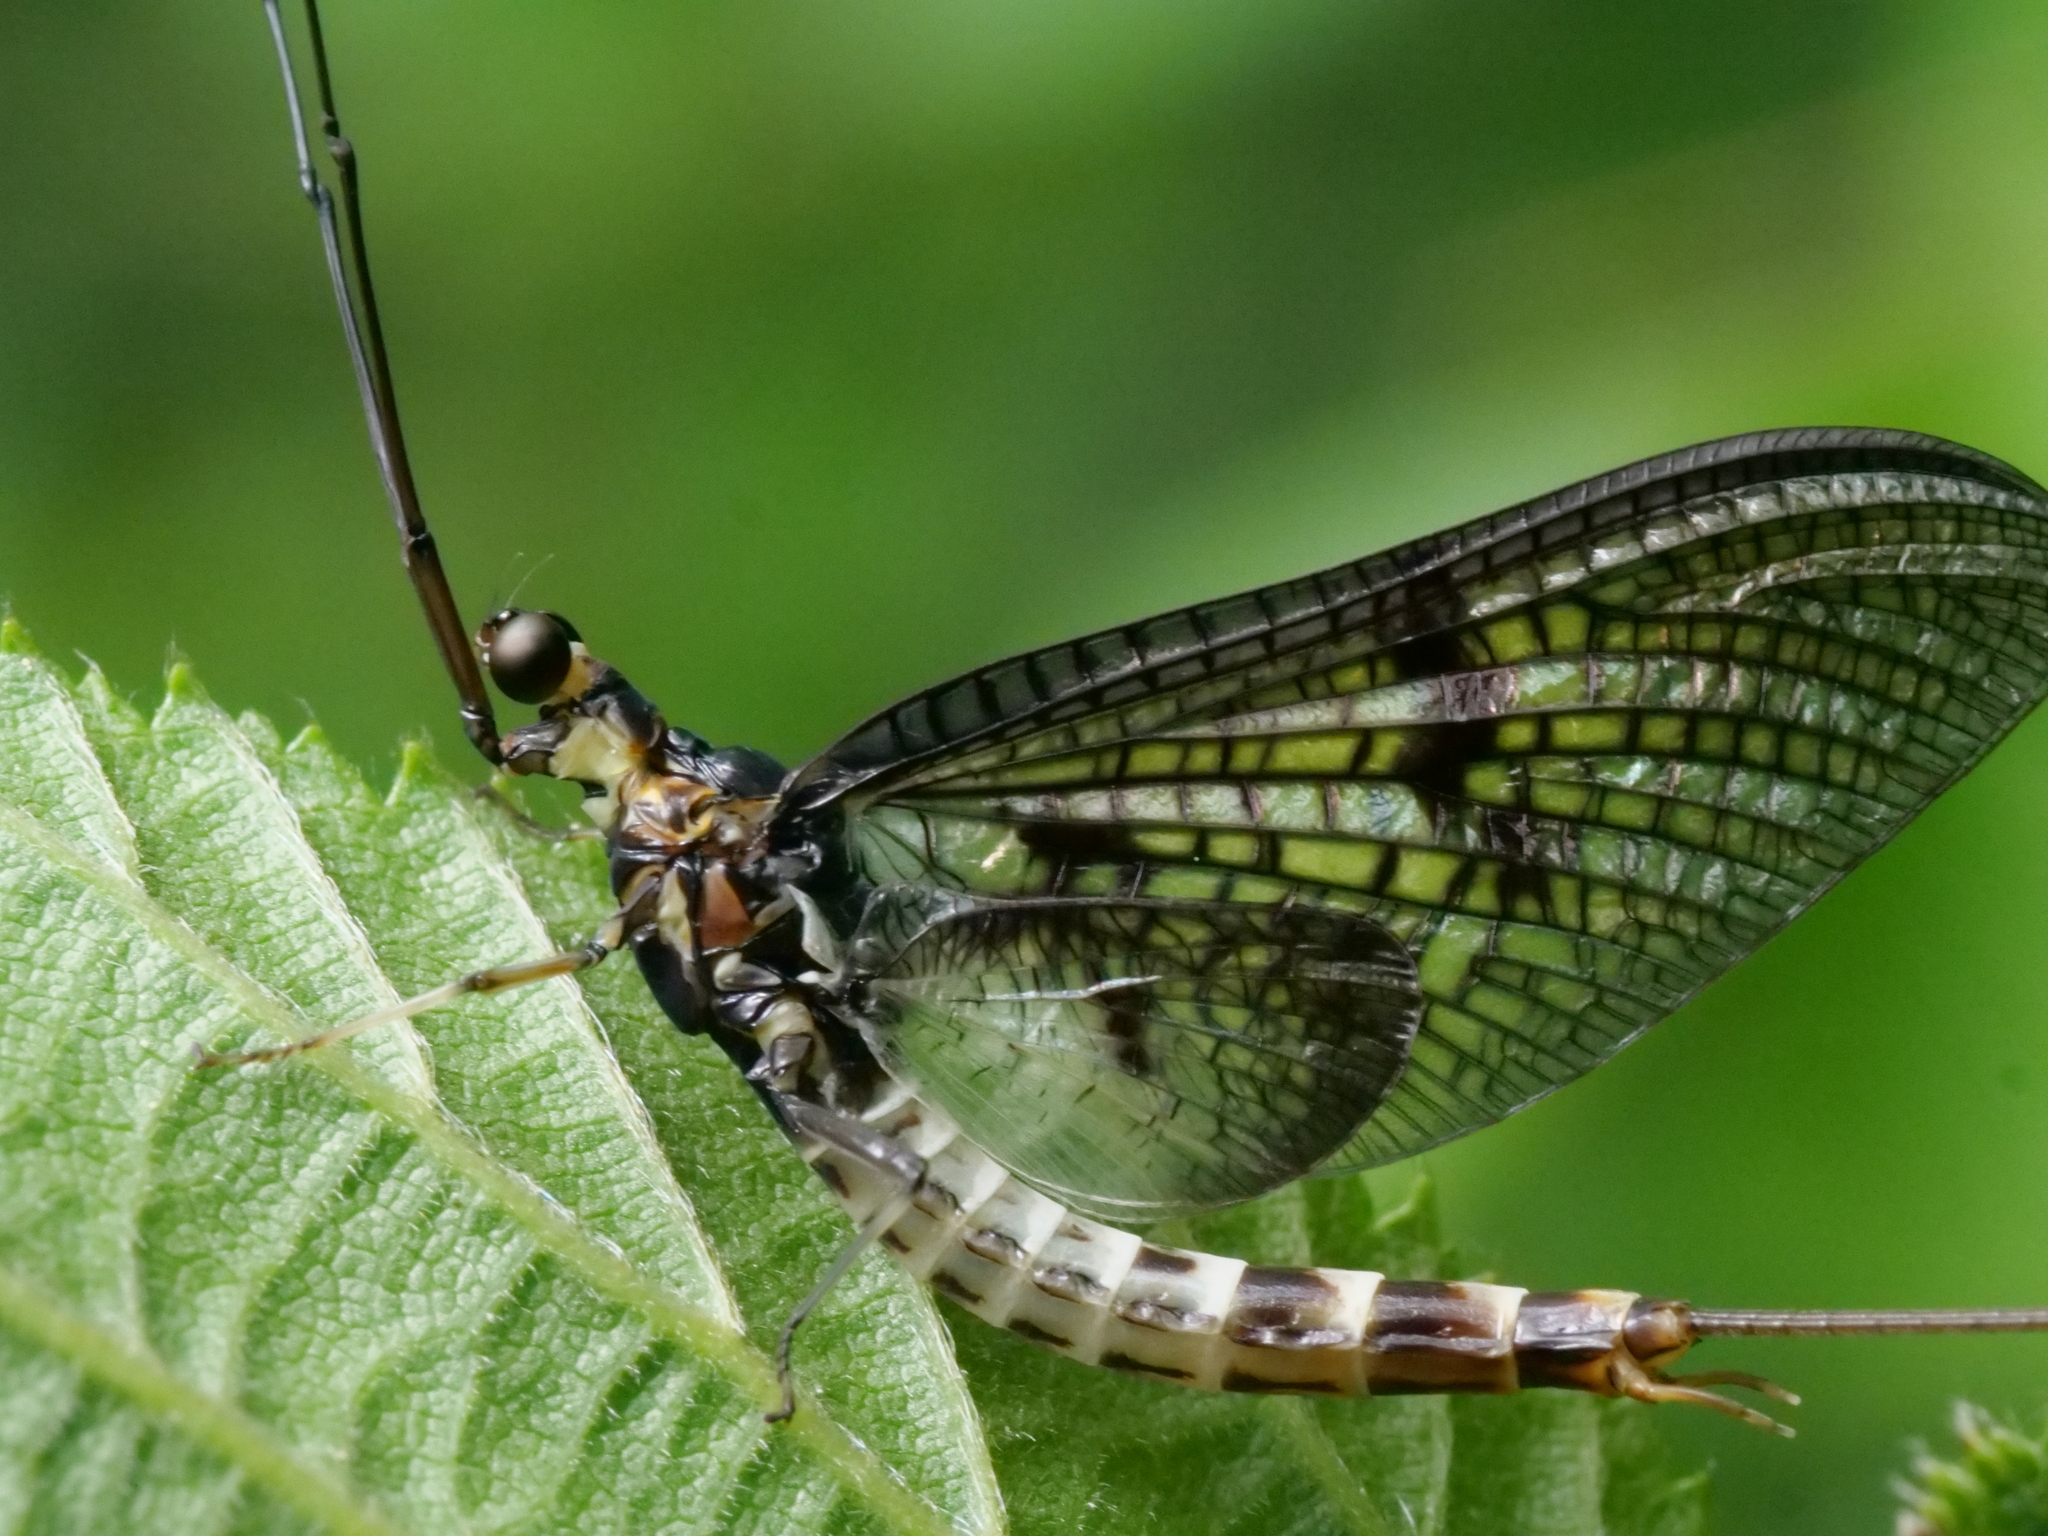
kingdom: Animalia
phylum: Arthropoda
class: Insecta
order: Ephemeroptera
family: Ephemeridae
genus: Ephemera
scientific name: Ephemera danica
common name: Green dun
